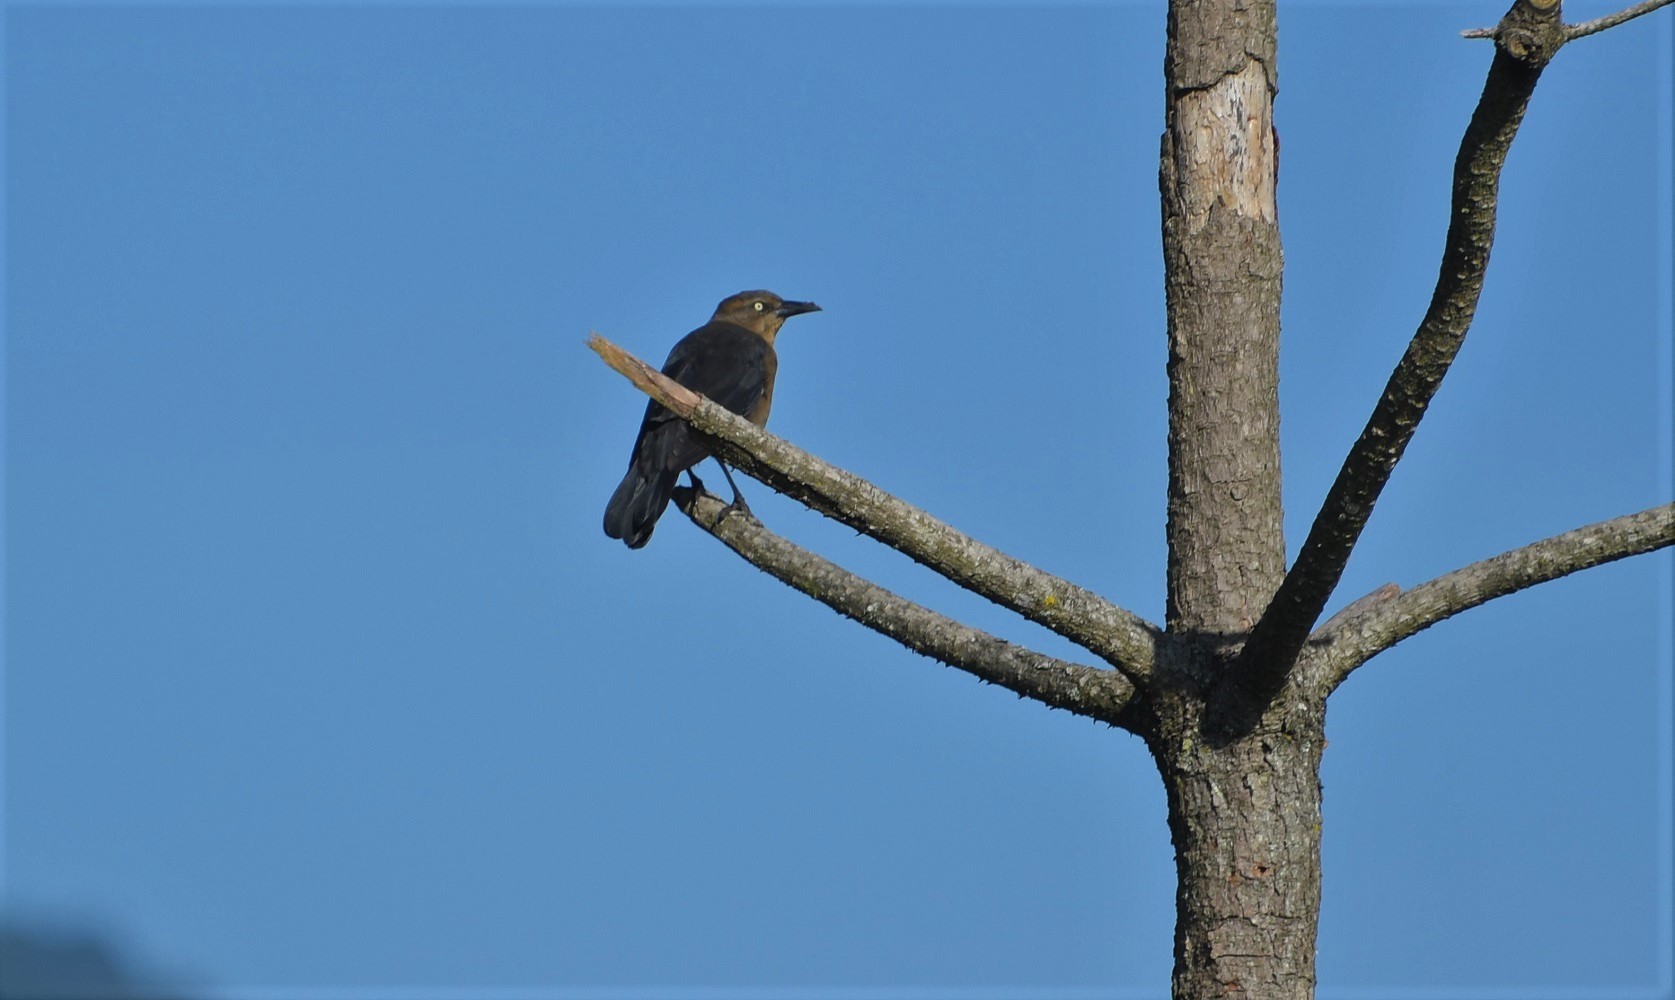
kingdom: Animalia
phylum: Chordata
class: Aves
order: Passeriformes
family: Icteridae
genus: Quiscalus
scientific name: Quiscalus mexicanus
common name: Great-tailed grackle
